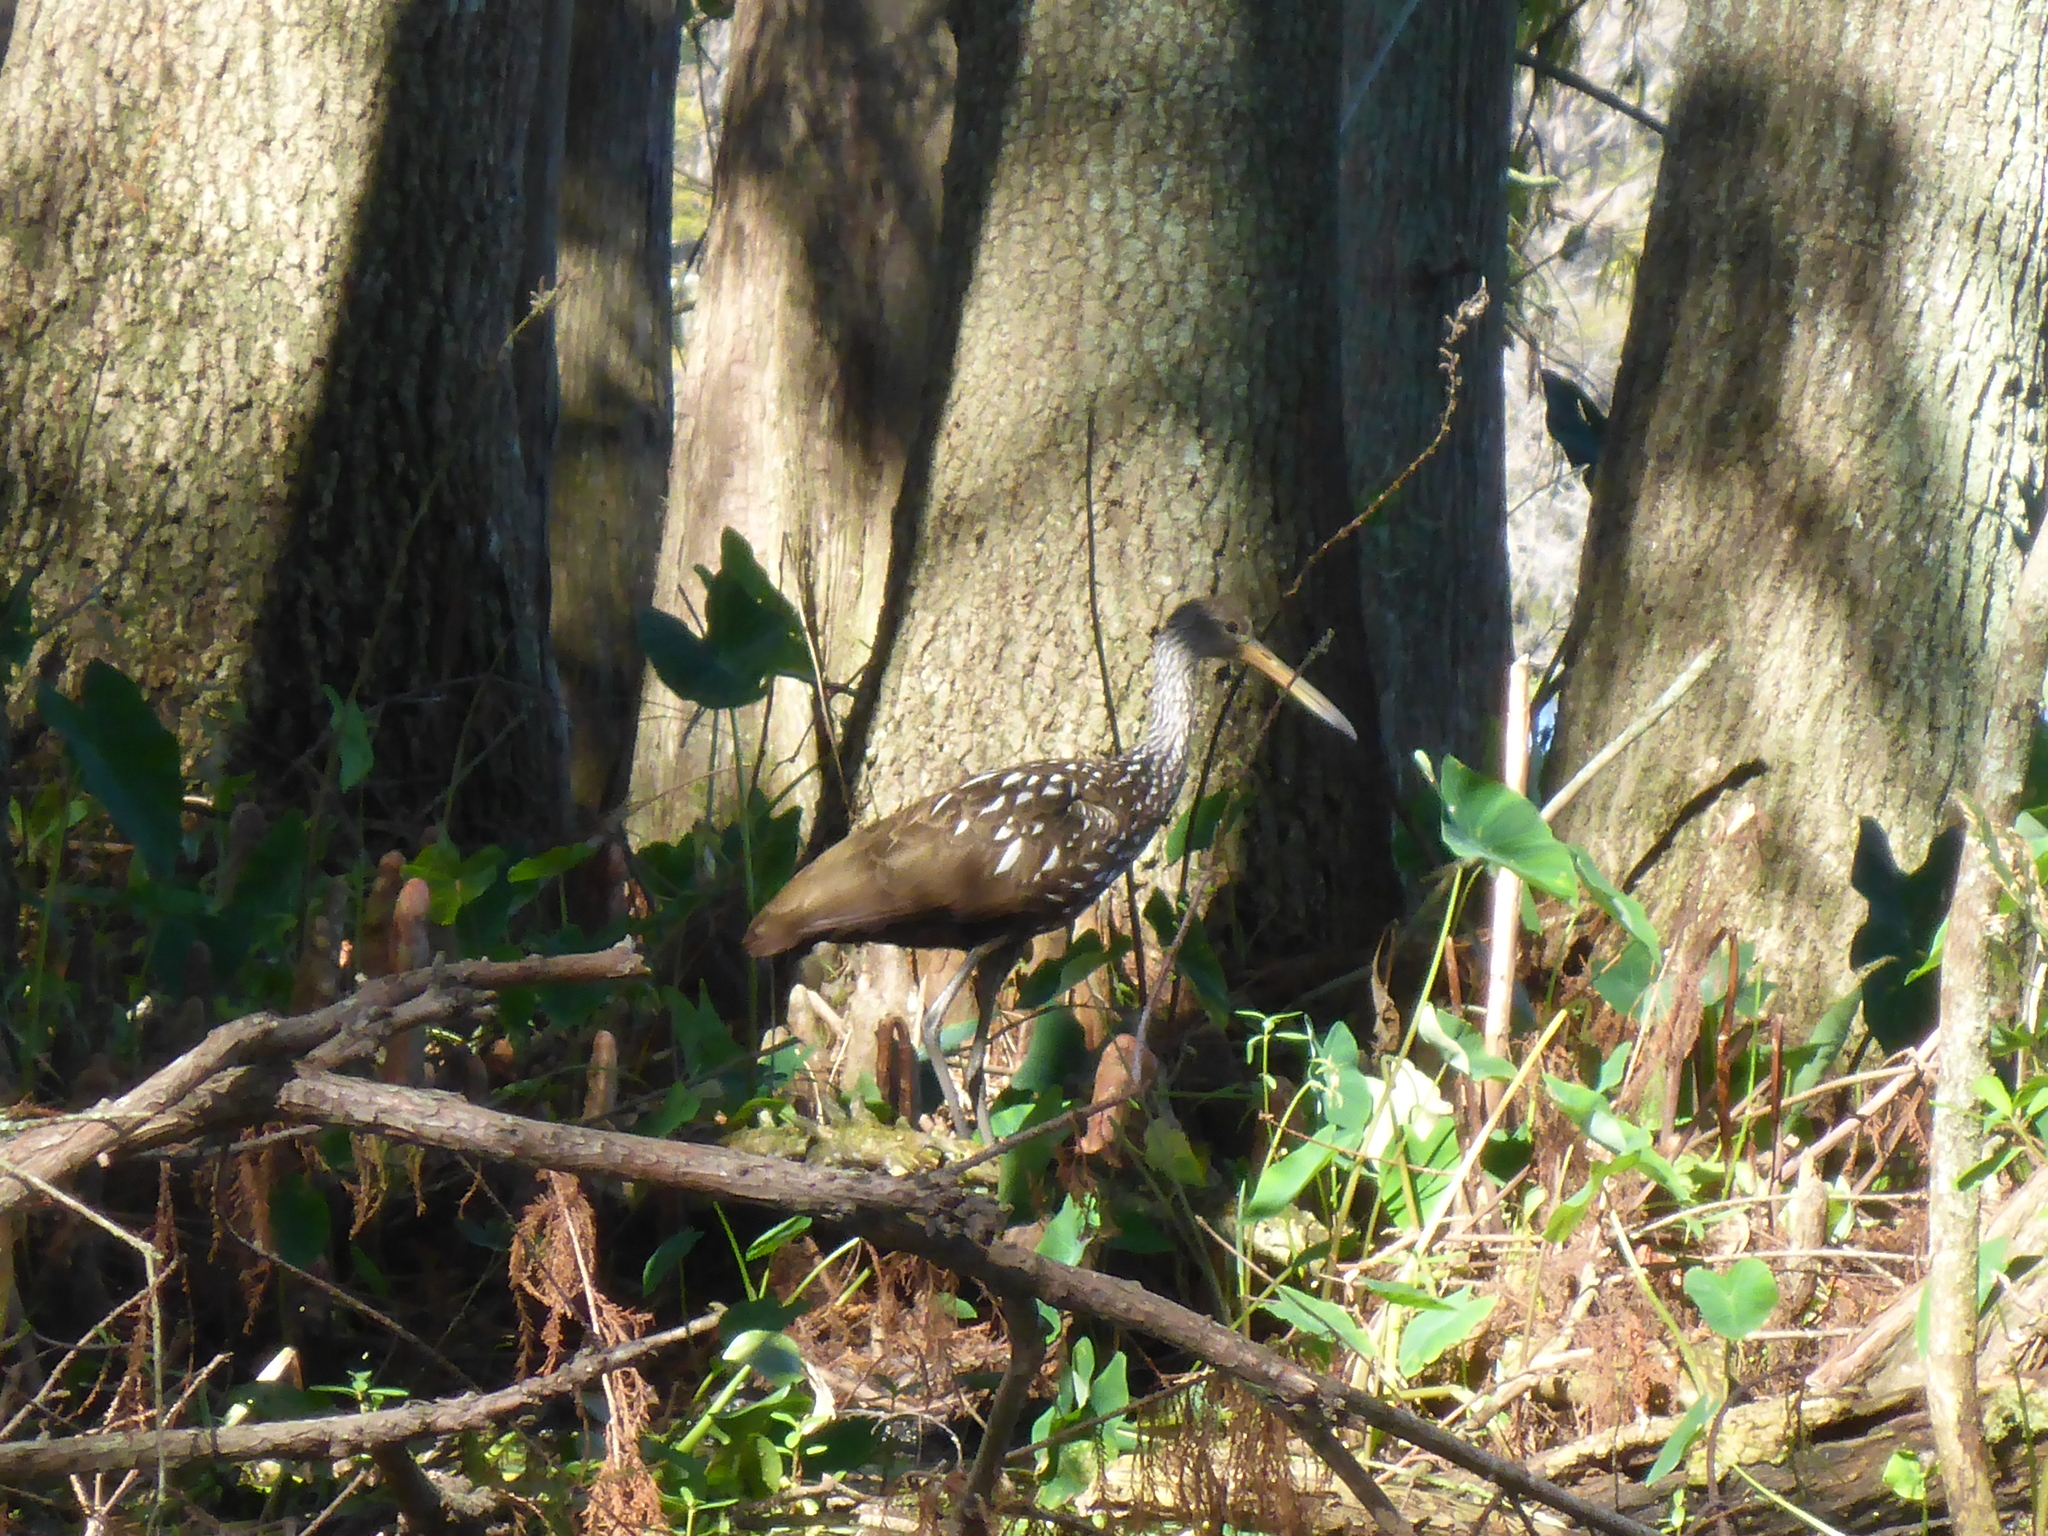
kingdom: Animalia
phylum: Chordata
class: Aves
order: Gruiformes
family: Aramidae
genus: Aramus
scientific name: Aramus guarauna
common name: Limpkin
